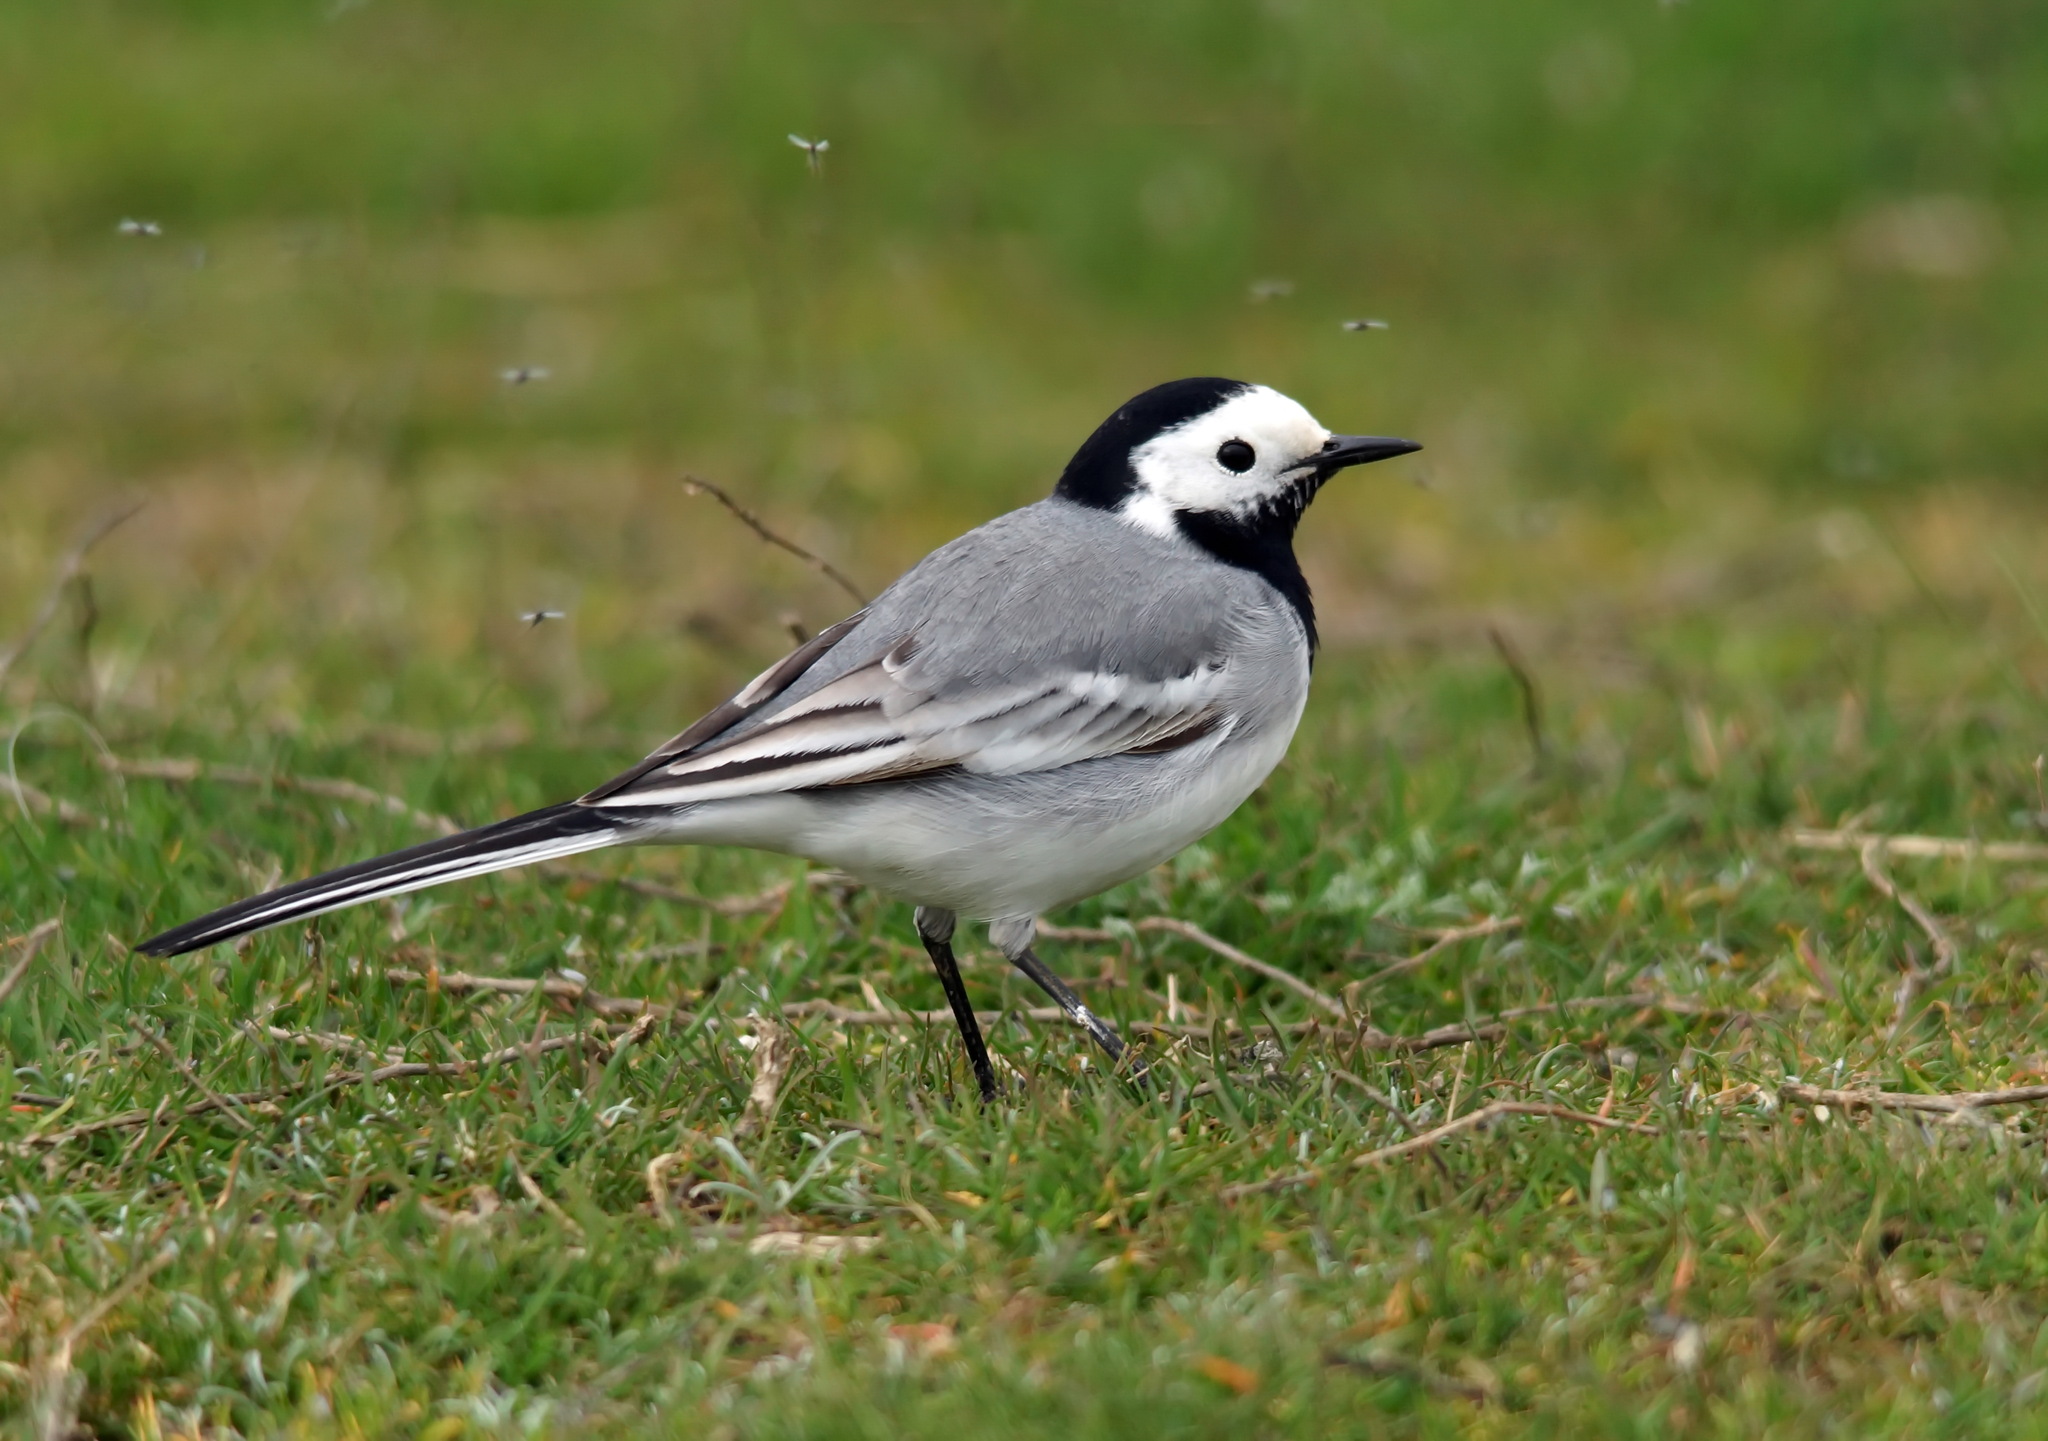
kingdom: Animalia
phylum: Chordata
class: Aves
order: Passeriformes
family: Motacillidae
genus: Motacilla
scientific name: Motacilla alba
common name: White wagtail
